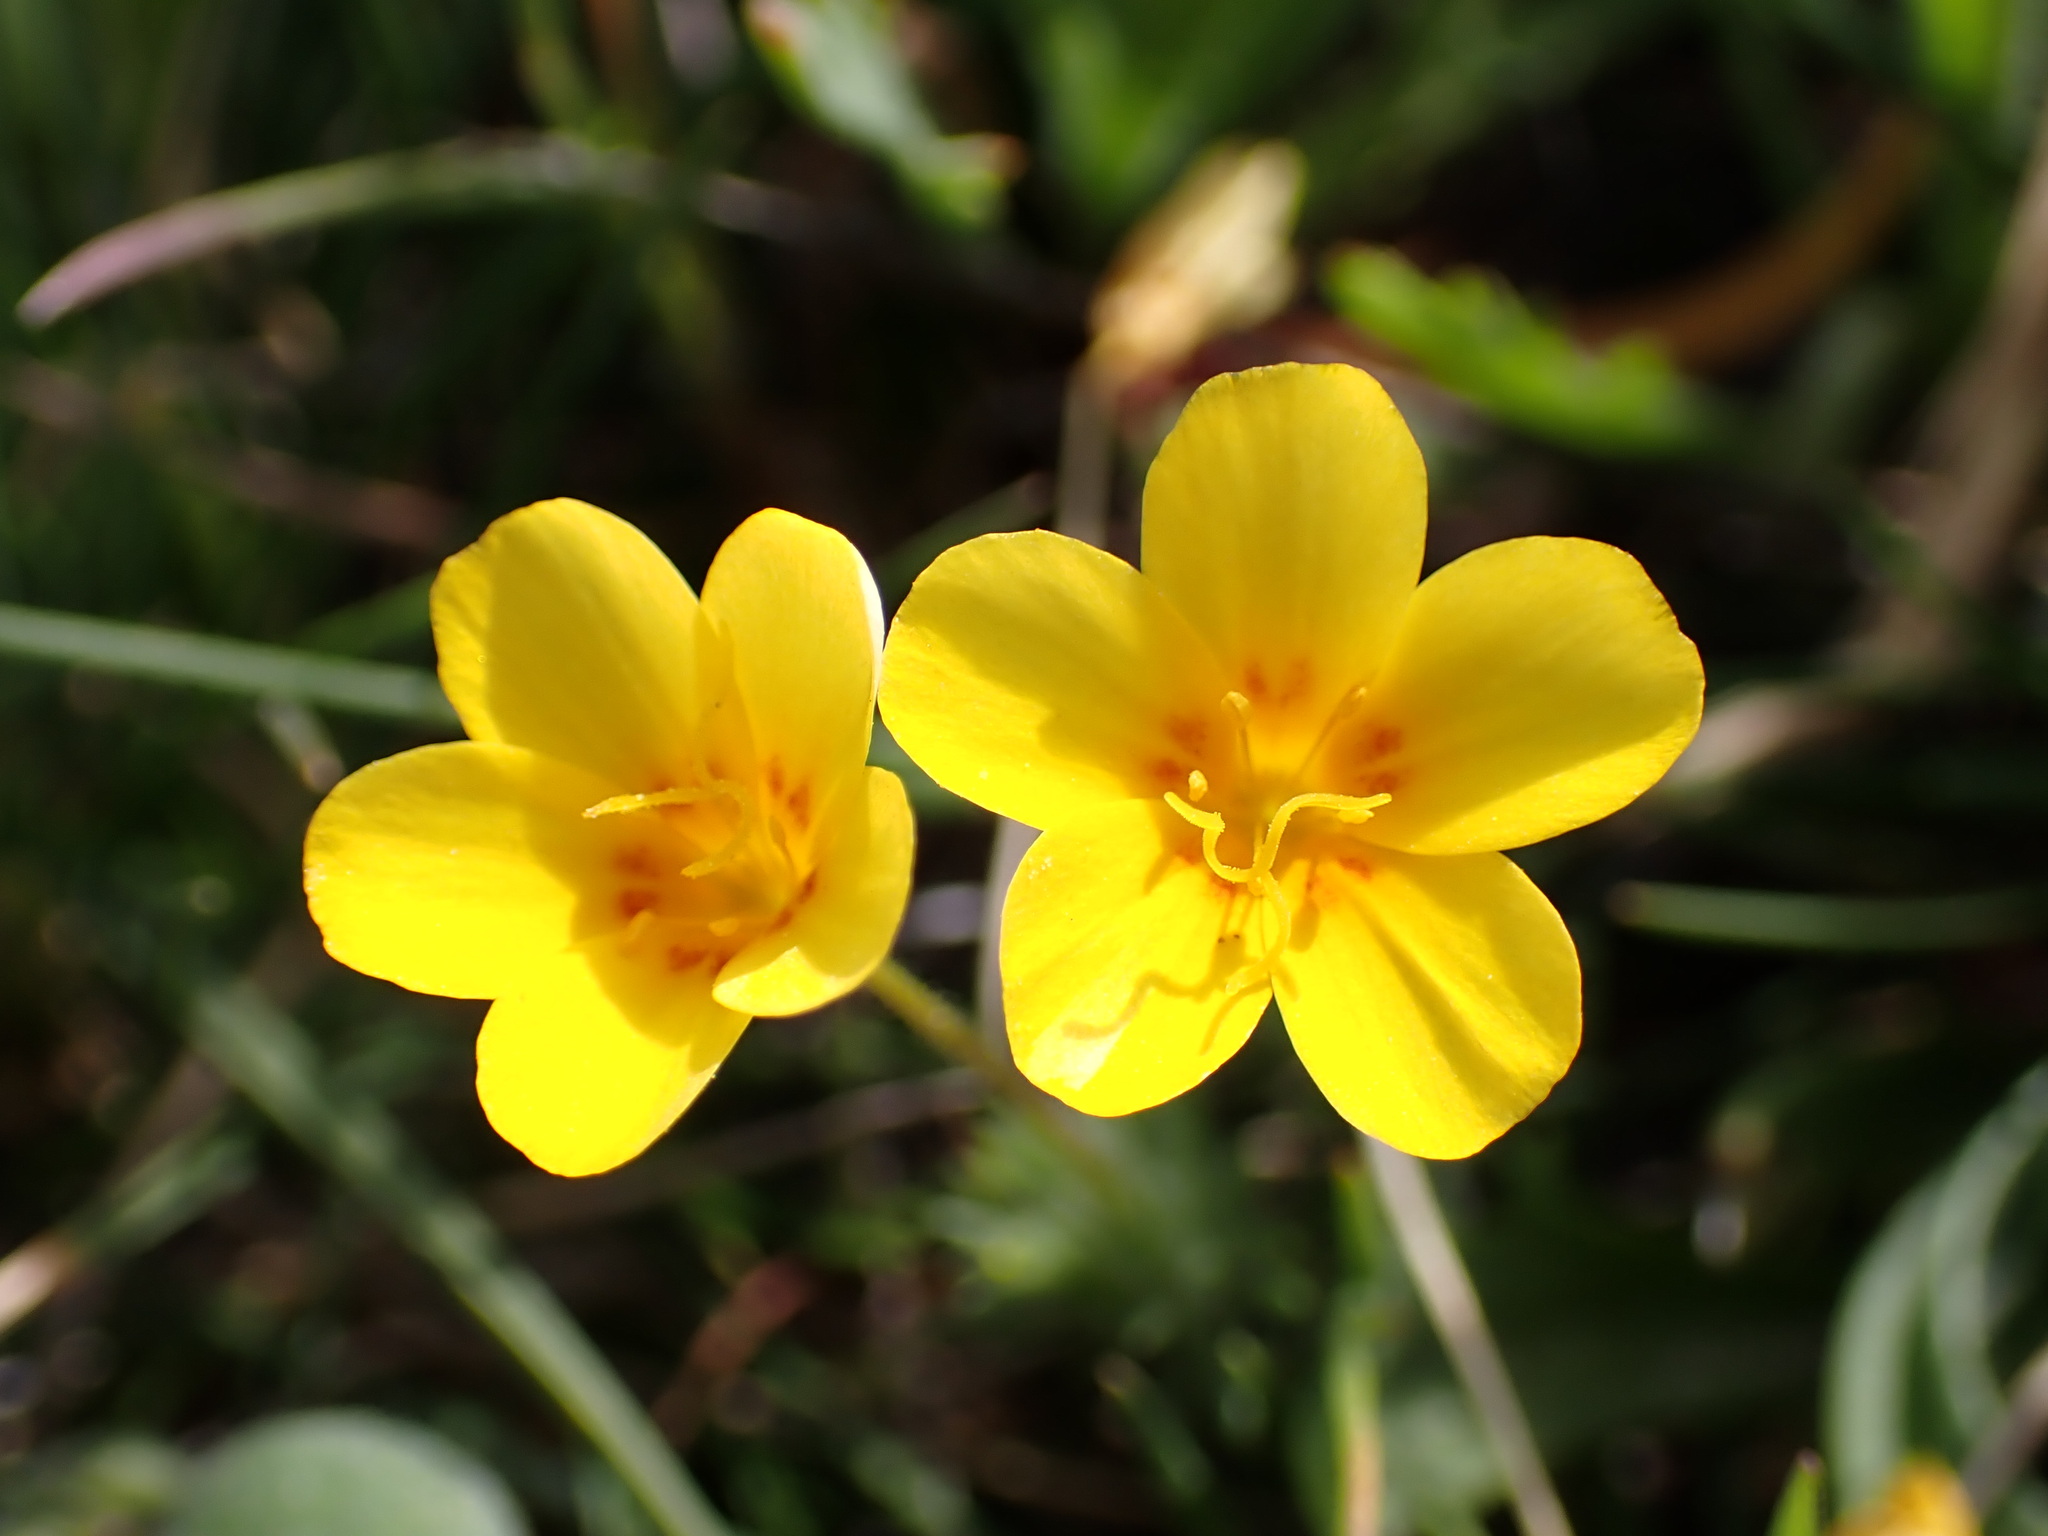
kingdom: Plantae
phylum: Tracheophyta
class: Magnoliopsida
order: Ericales
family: Polemoniaceae
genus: Leptosiphon
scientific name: Leptosiphon croceus
